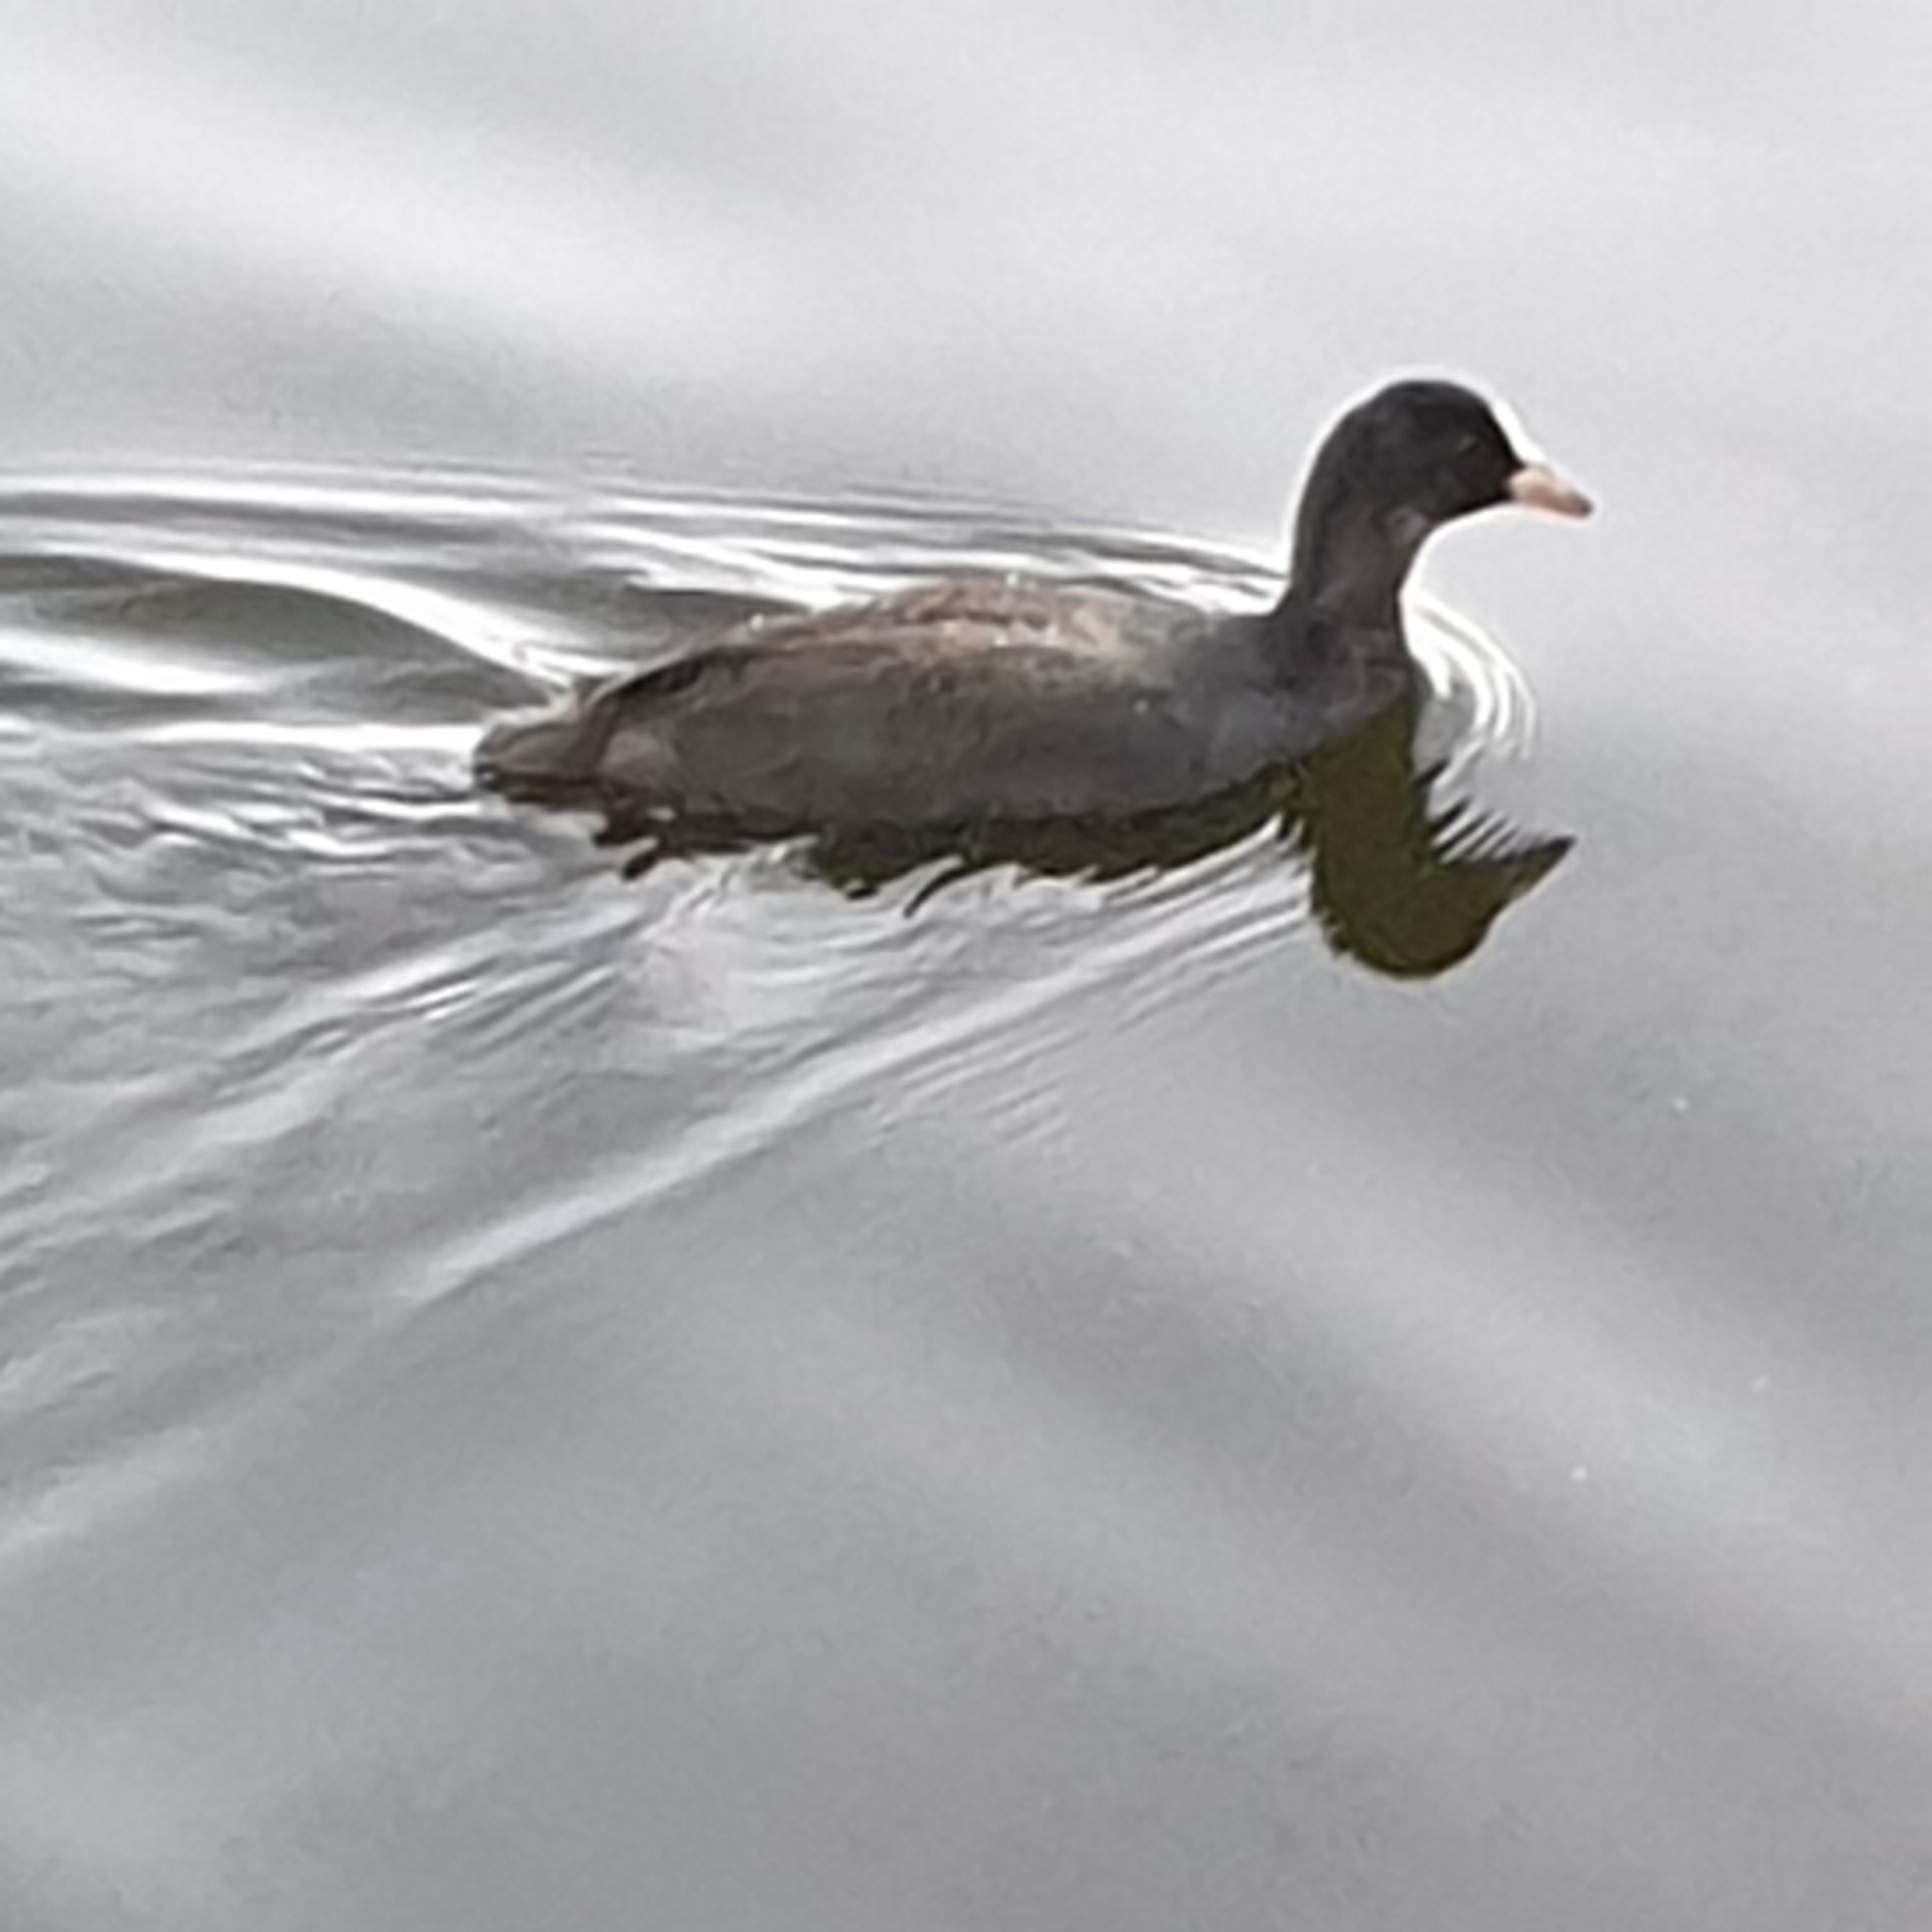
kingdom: Animalia
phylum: Chordata
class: Aves
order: Gruiformes
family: Rallidae
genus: Fulica
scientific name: Fulica atra
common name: Eurasian coot
